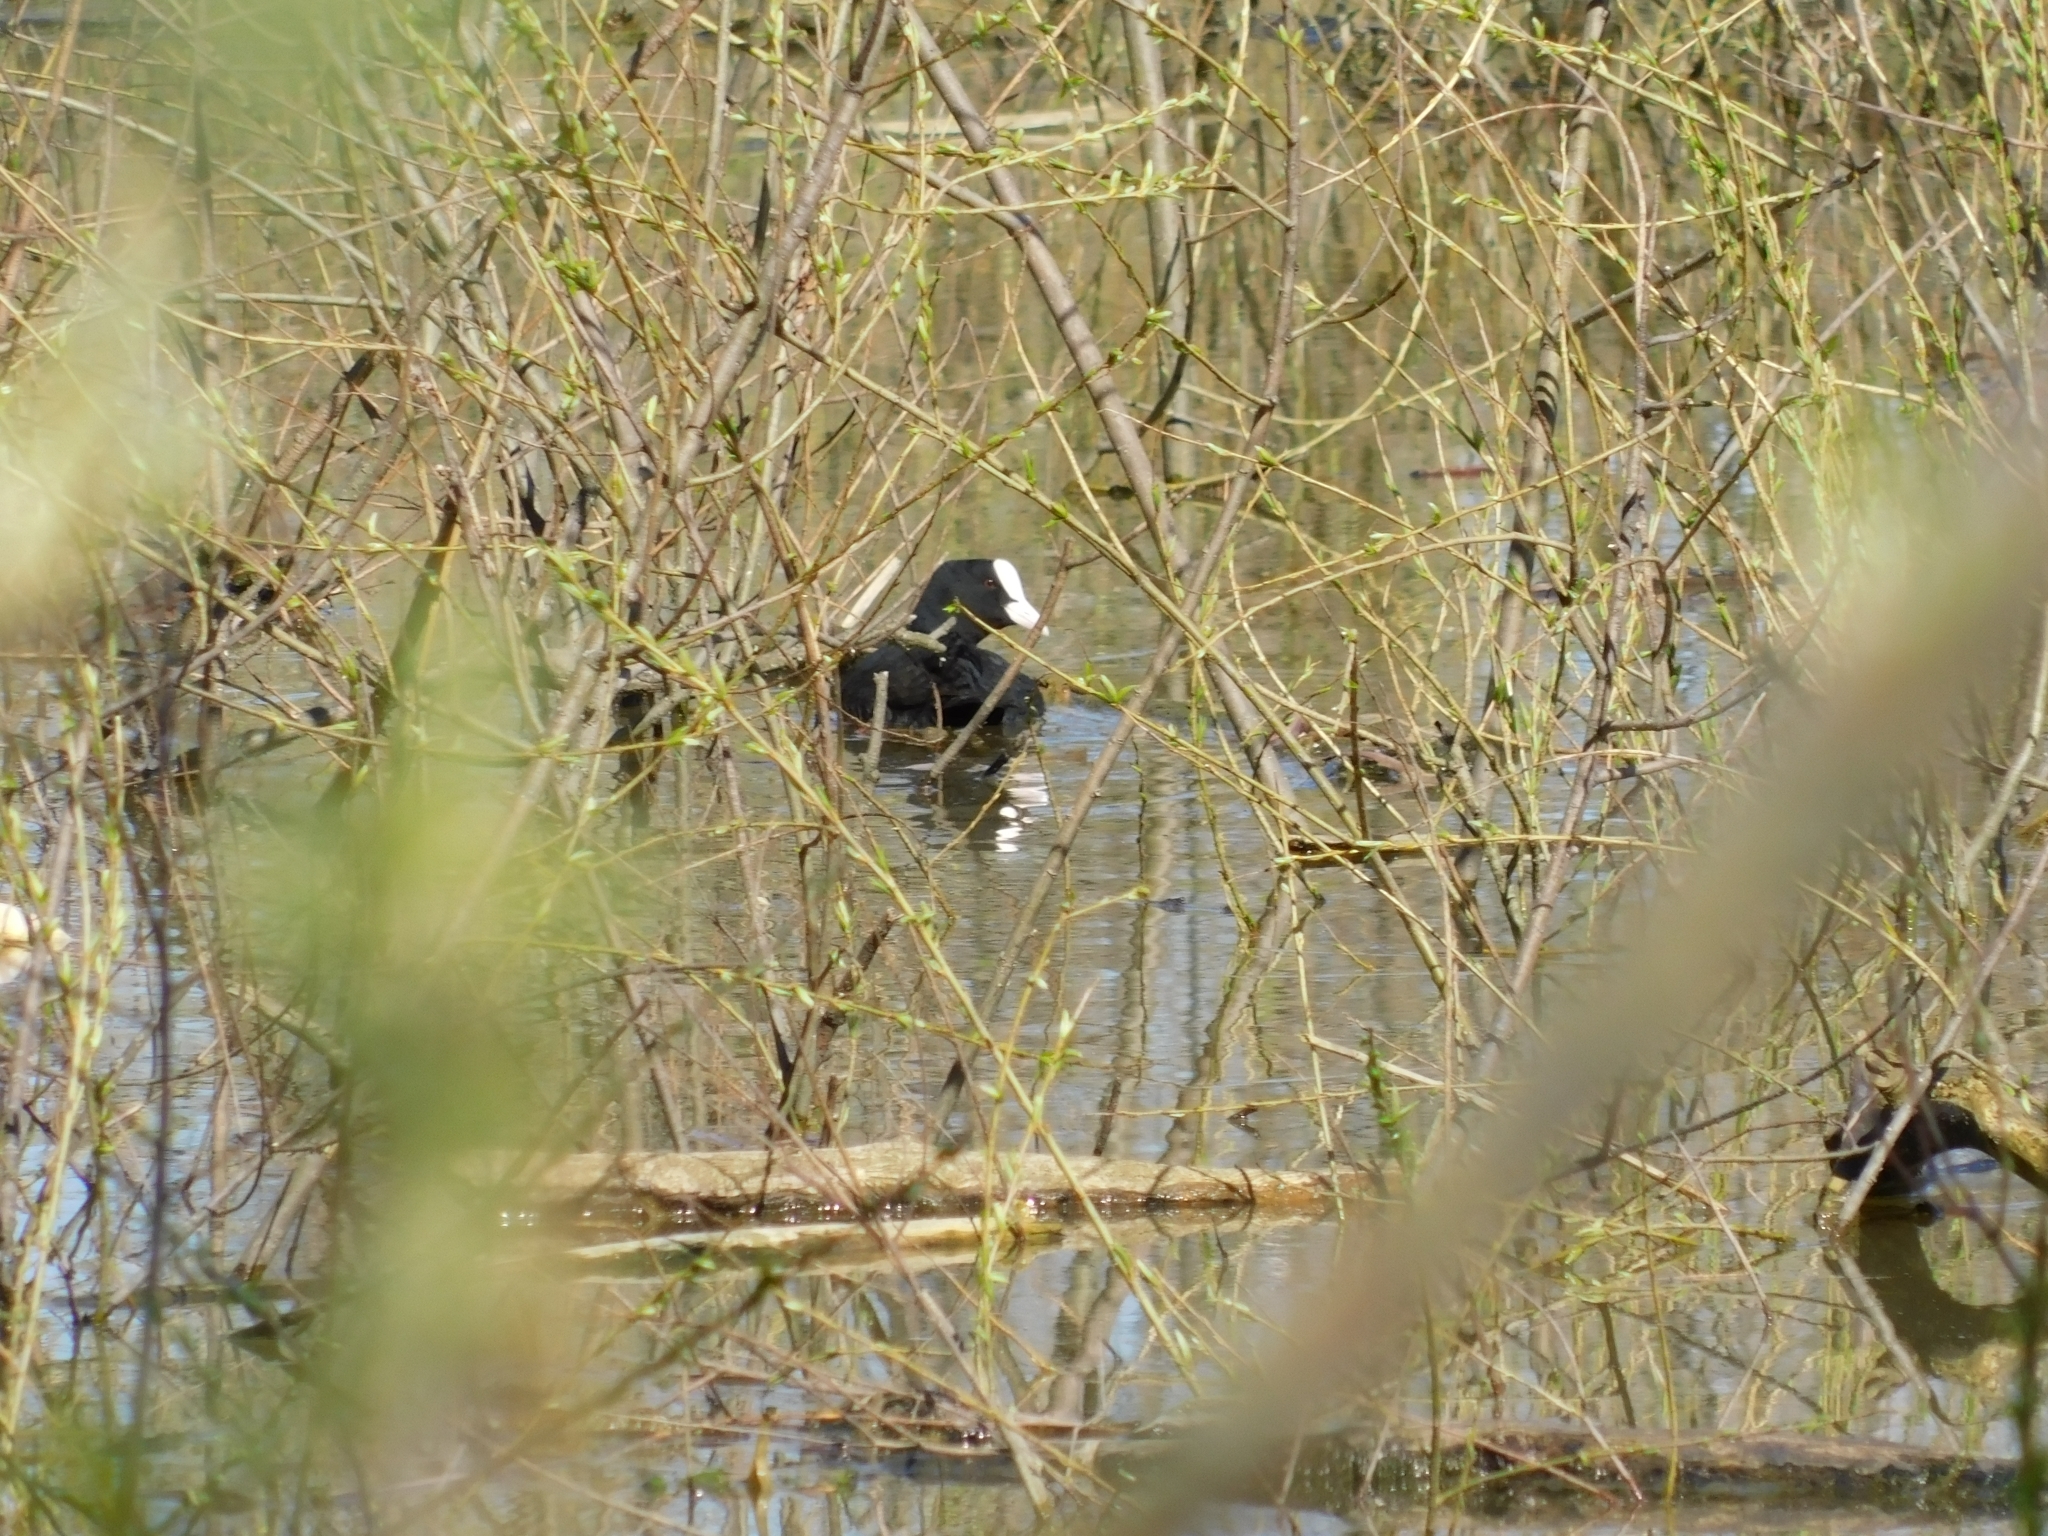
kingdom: Animalia
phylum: Chordata
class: Aves
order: Gruiformes
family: Rallidae
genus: Fulica
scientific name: Fulica atra
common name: Eurasian coot
